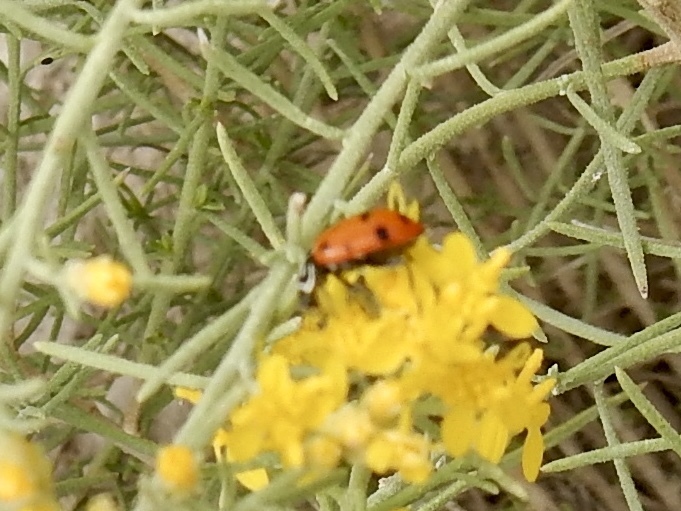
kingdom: Animalia
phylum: Arthropoda
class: Insecta
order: Coleoptera
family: Coccinellidae
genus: Hippodamia
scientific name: Hippodamia convergens
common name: Convergent lady beetle
